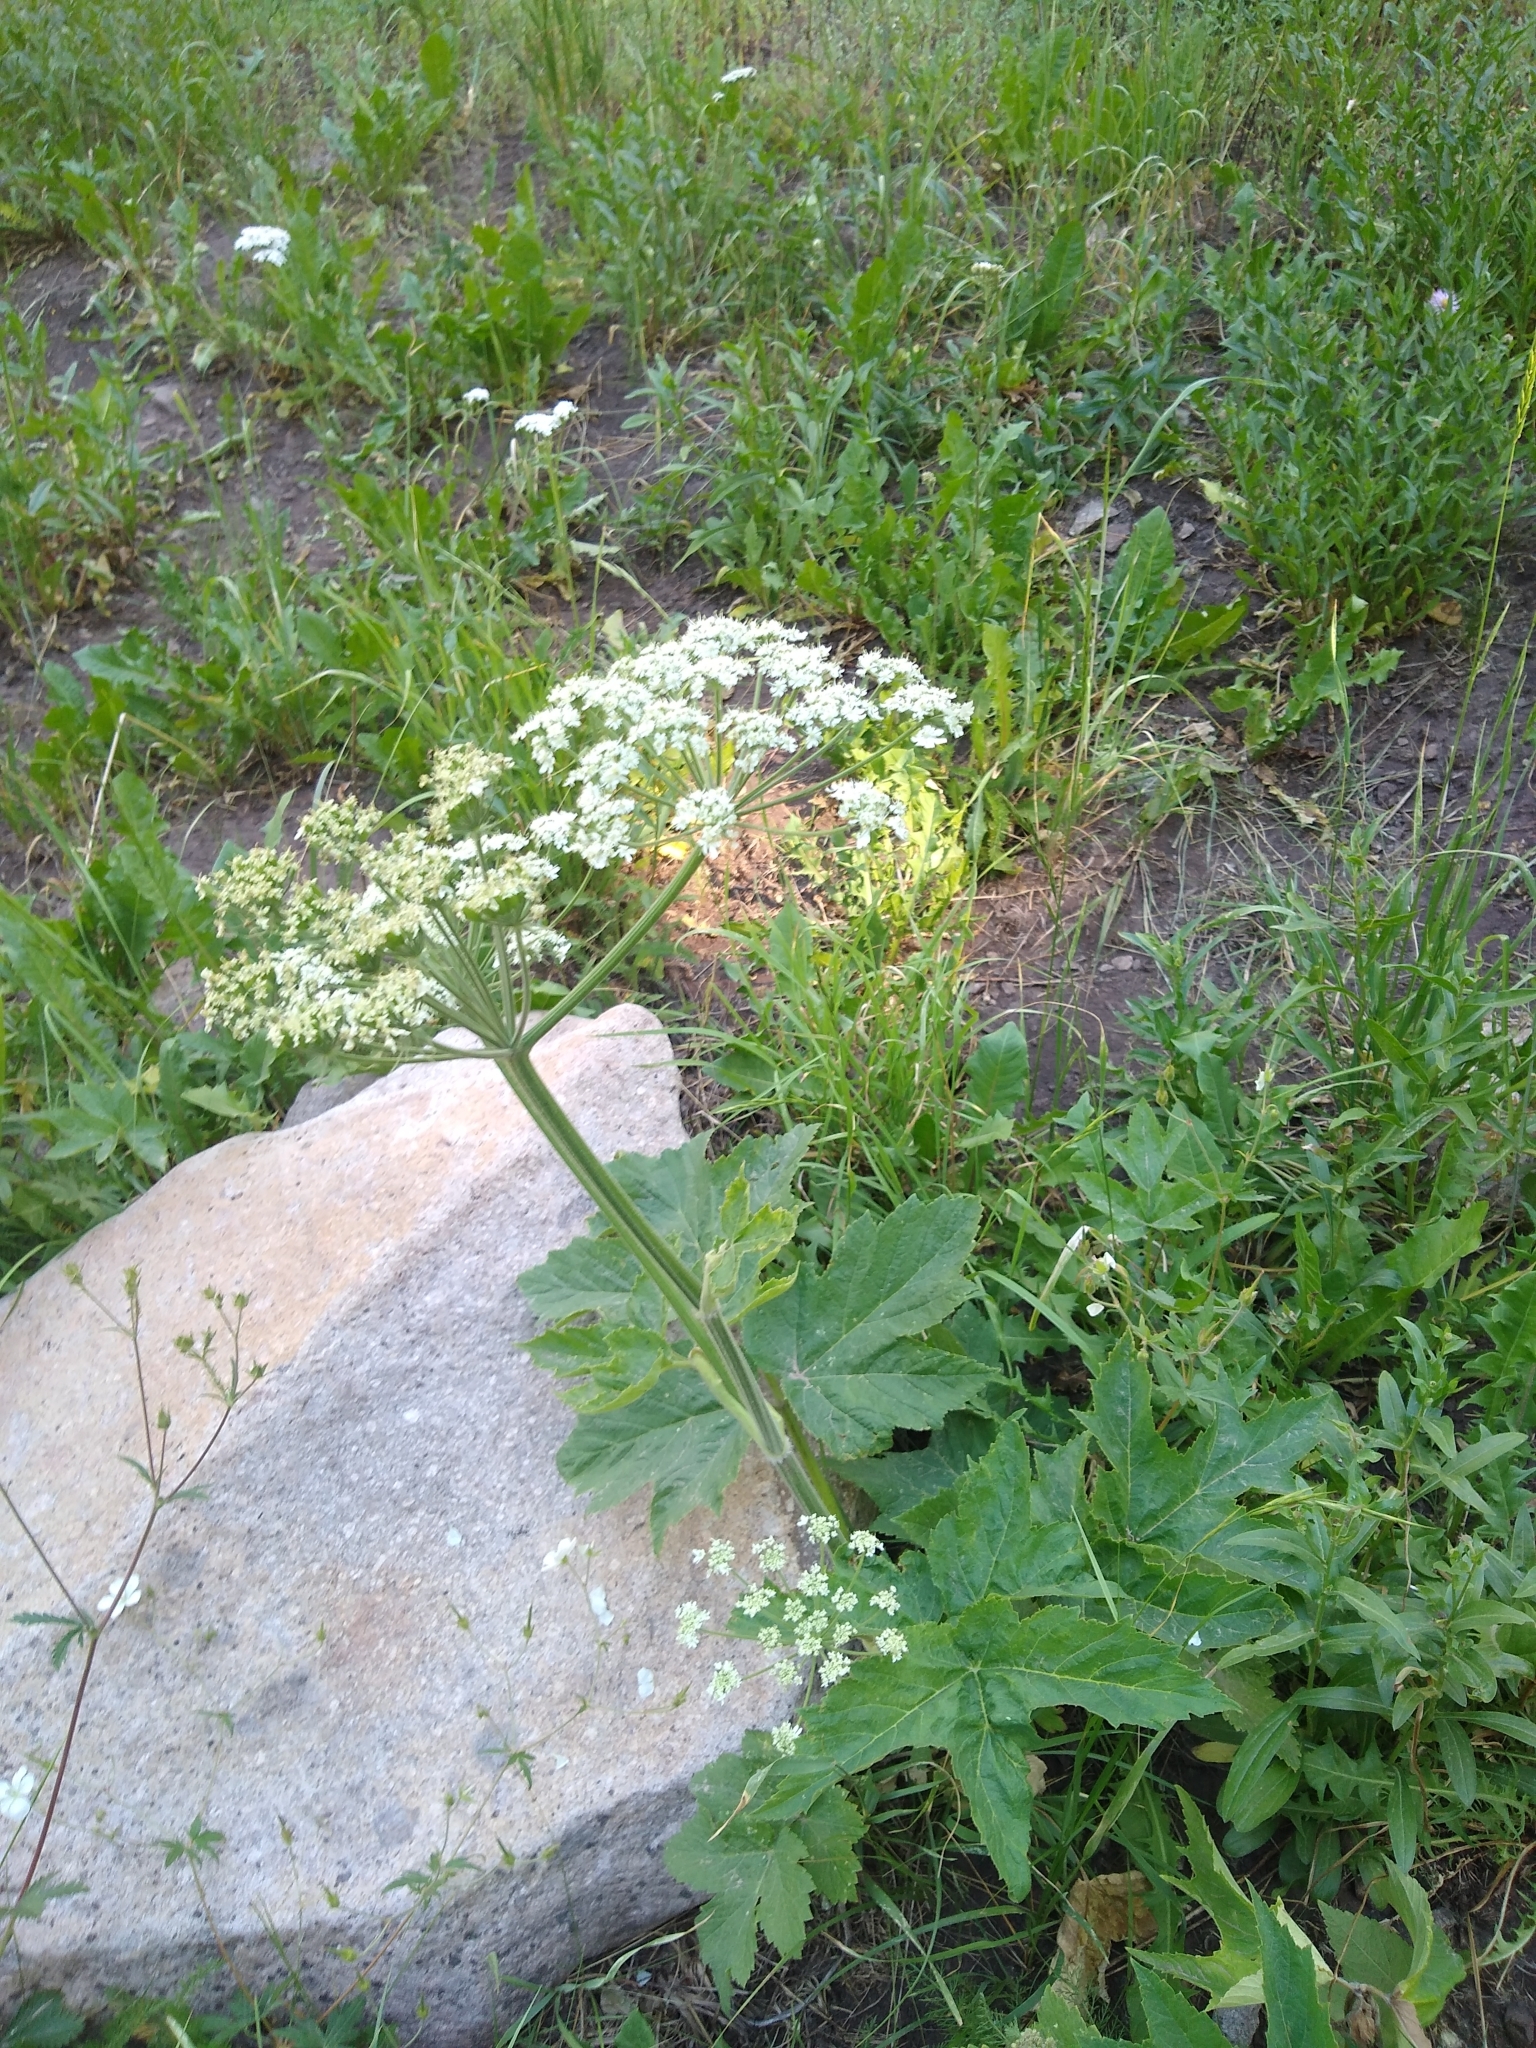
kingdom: Plantae
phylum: Tracheophyta
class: Magnoliopsida
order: Apiales
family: Apiaceae
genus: Heracleum
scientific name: Heracleum maximum
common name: American cow parsnip
